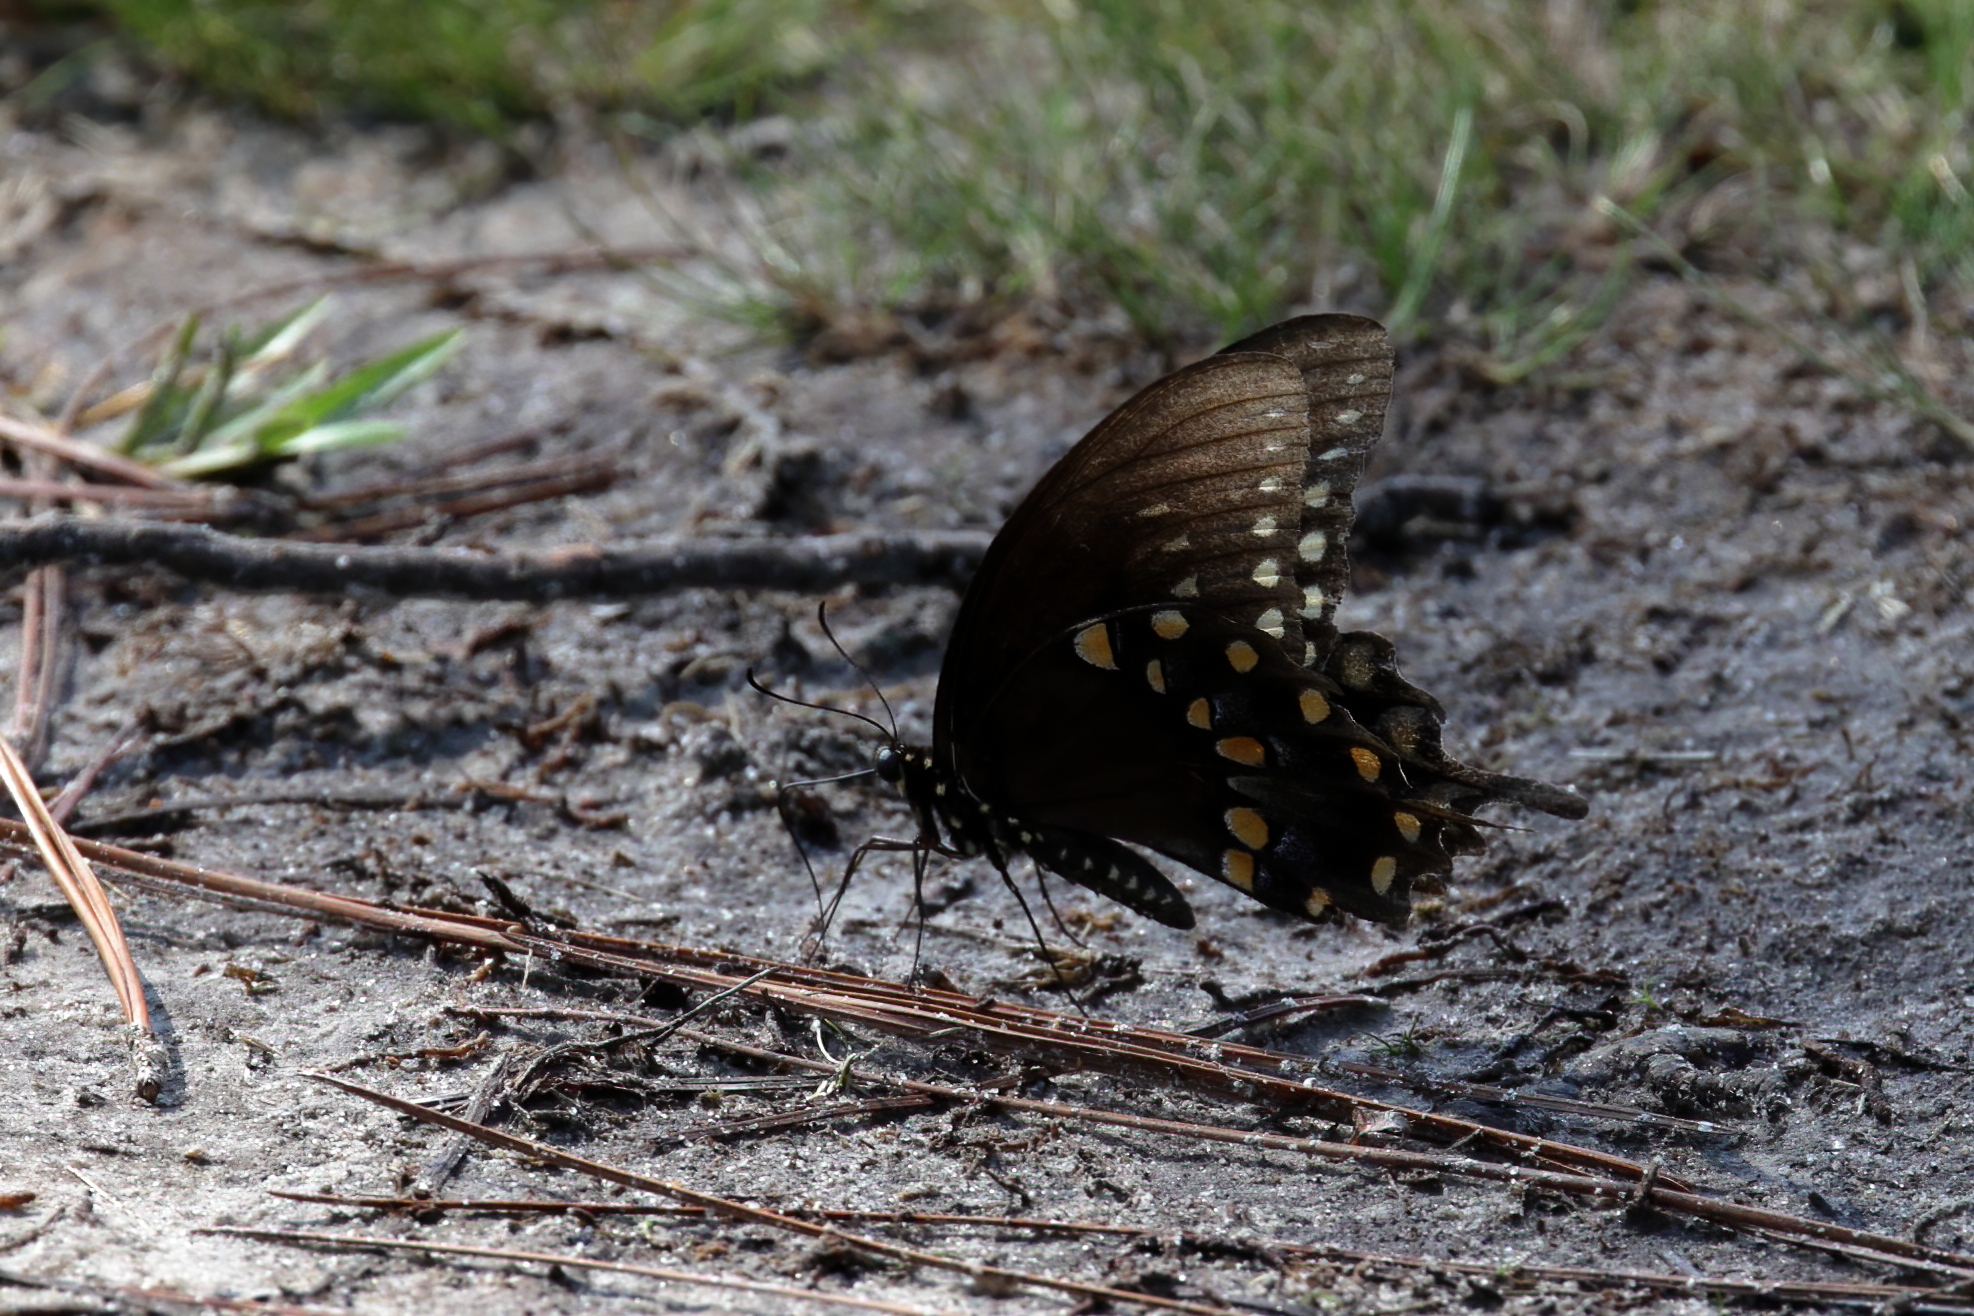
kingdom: Animalia
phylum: Arthropoda
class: Insecta
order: Lepidoptera
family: Papilionidae
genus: Papilio
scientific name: Papilio troilus
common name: Spicebush swallowtail
